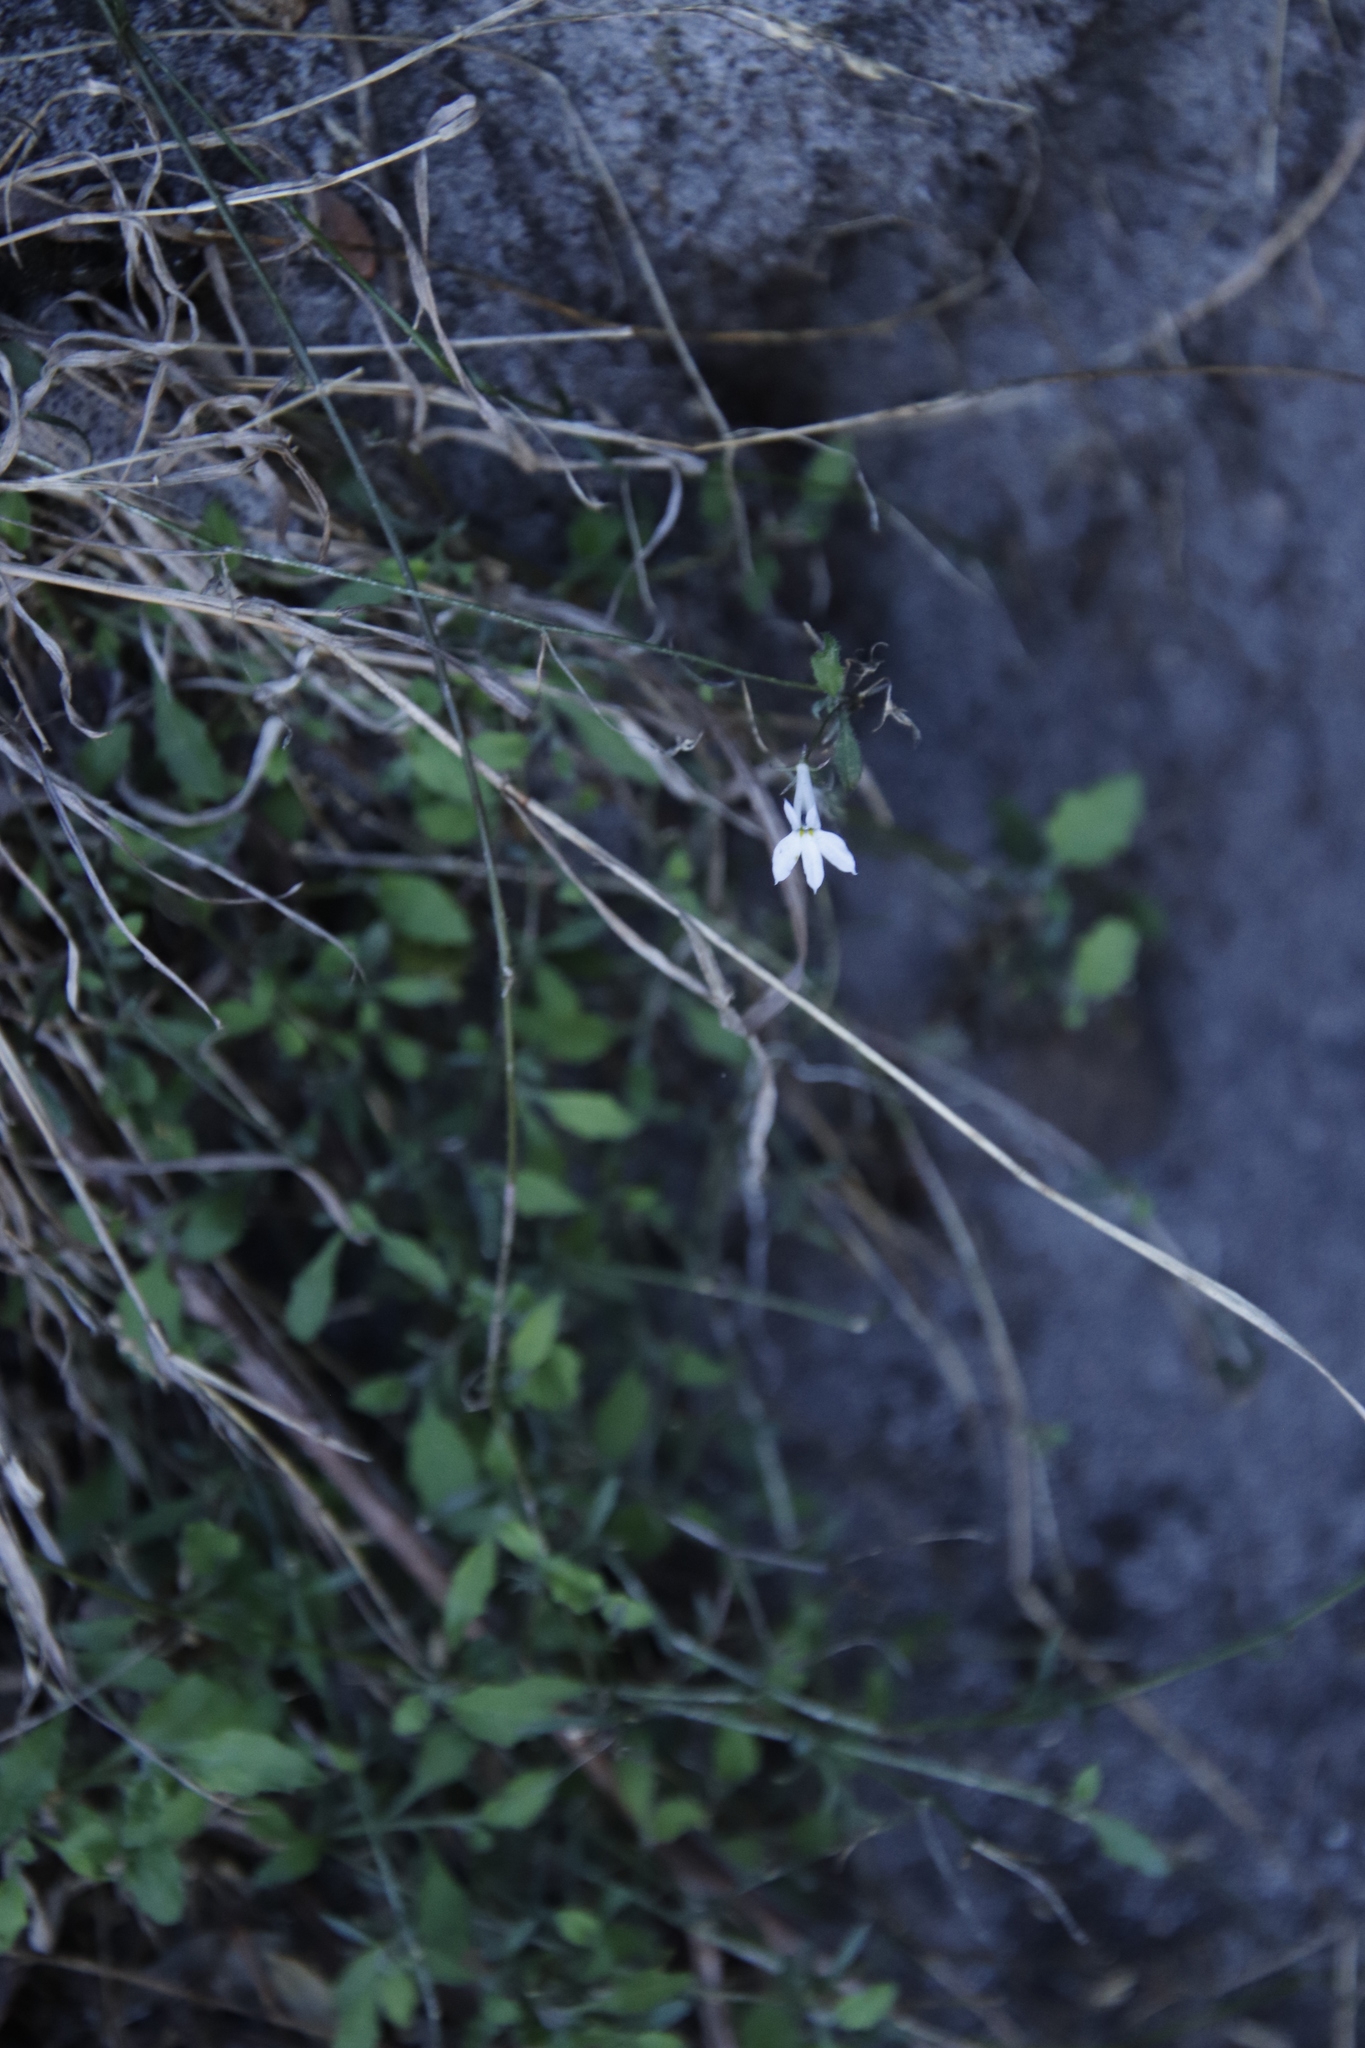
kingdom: Plantae
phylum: Tracheophyta
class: Magnoliopsida
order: Asterales
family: Campanulaceae
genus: Lobelia
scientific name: Lobelia pubescens
